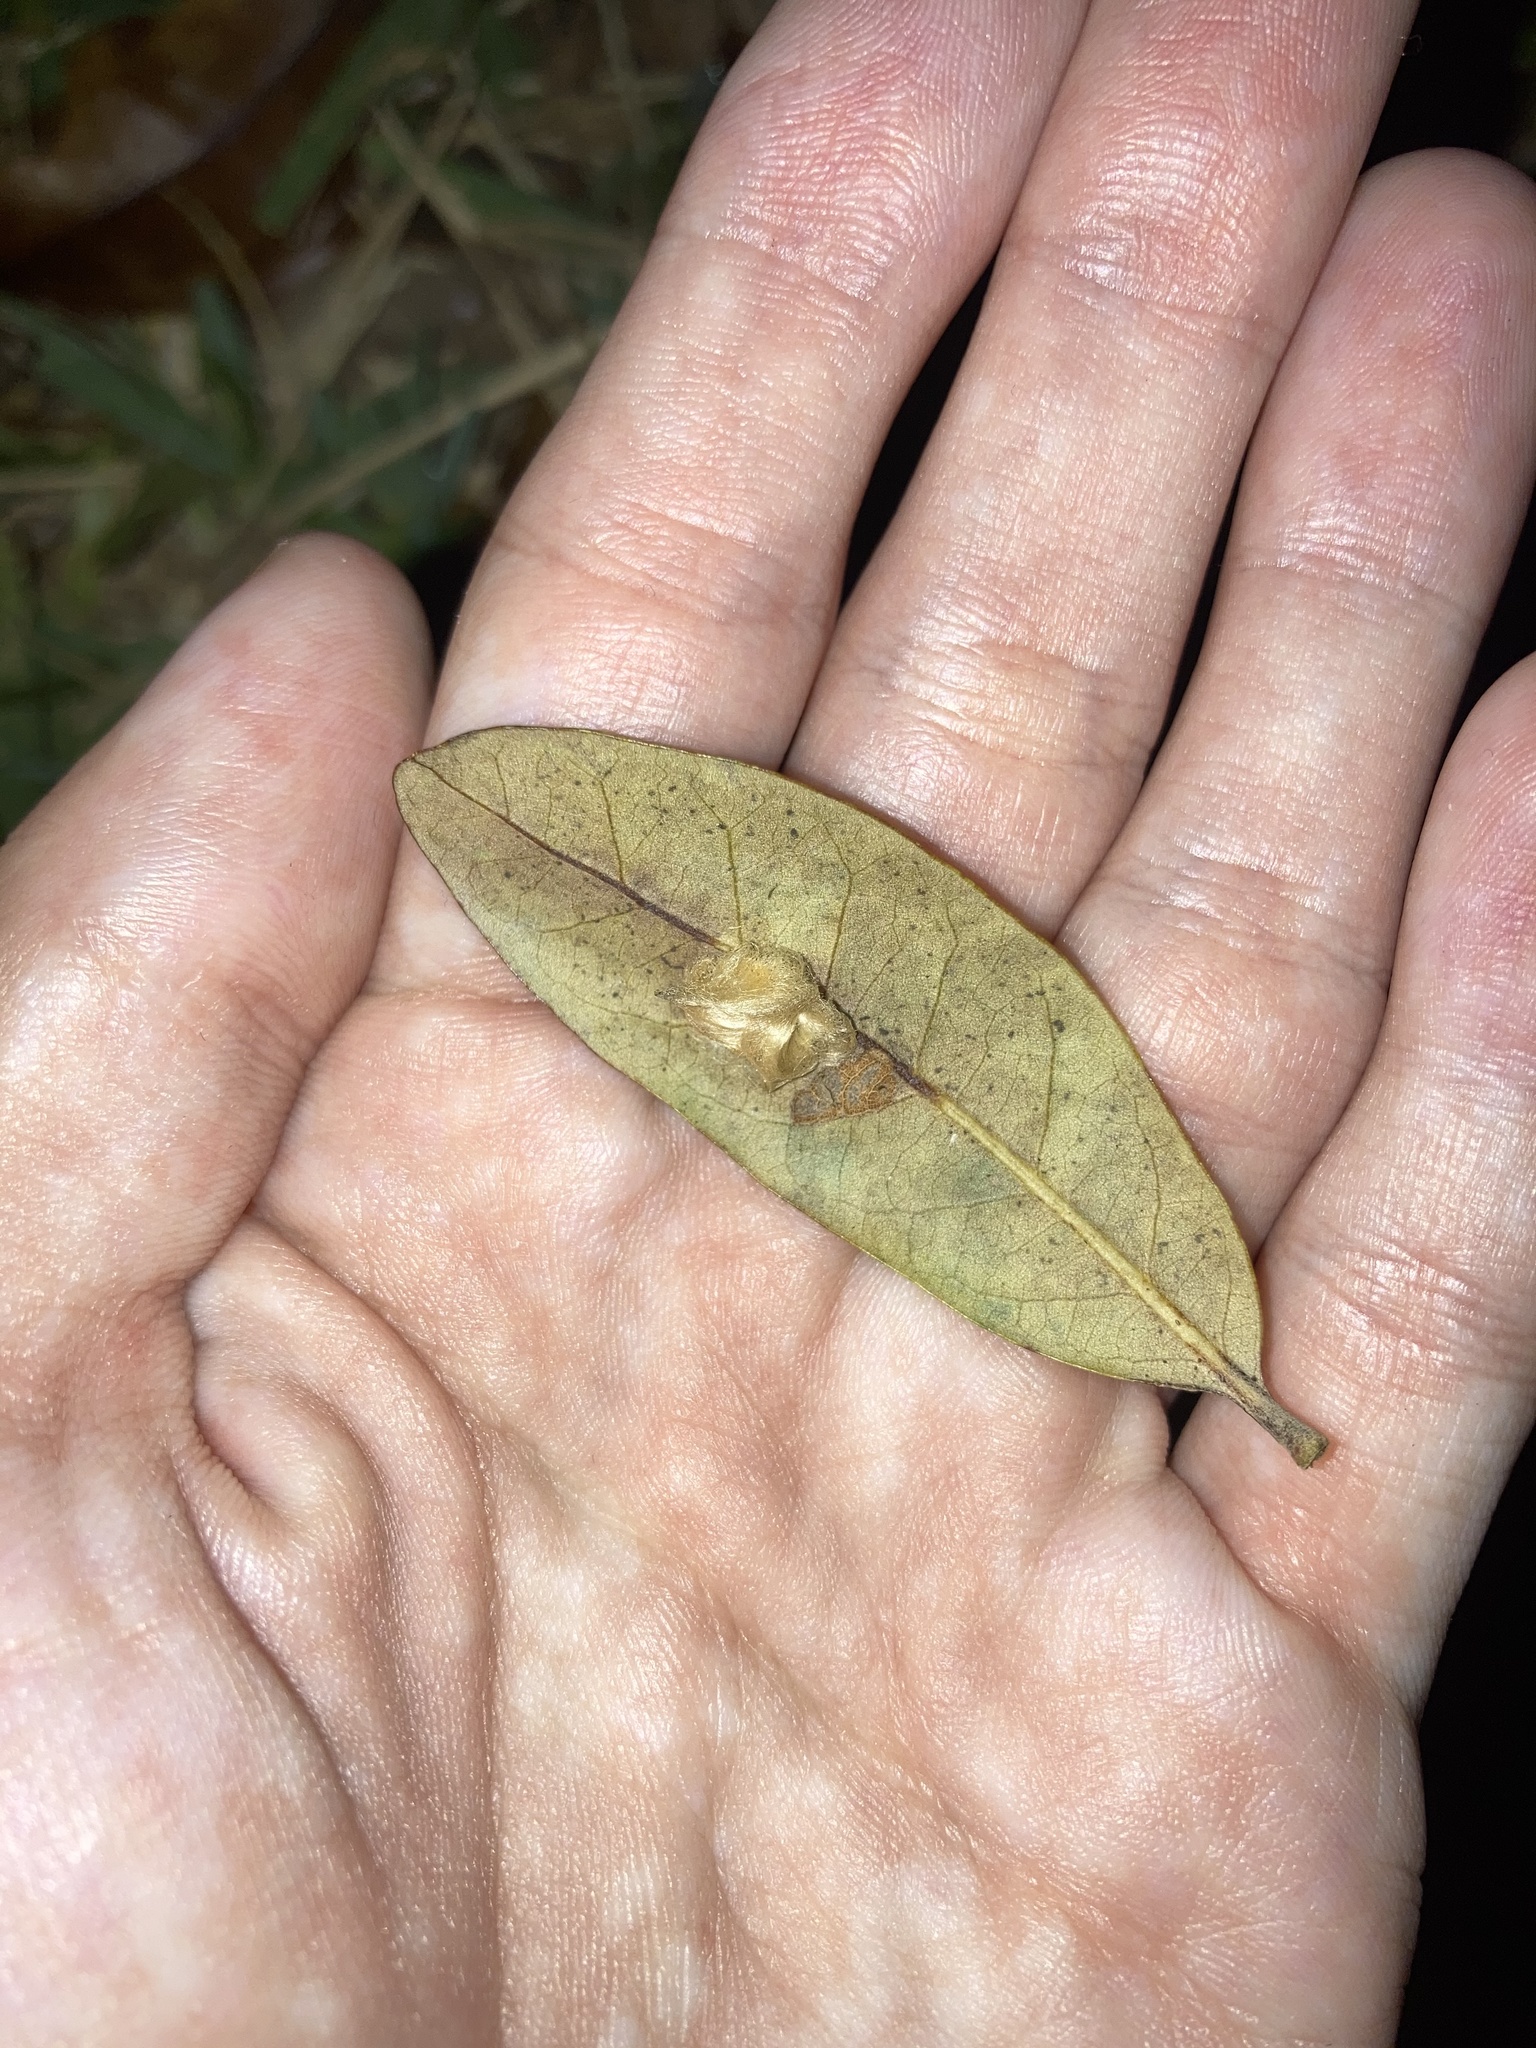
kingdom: Animalia
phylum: Arthropoda
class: Insecta
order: Hymenoptera
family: Cynipidae
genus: Andricus
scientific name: Andricus Druon quercuslanigerum
